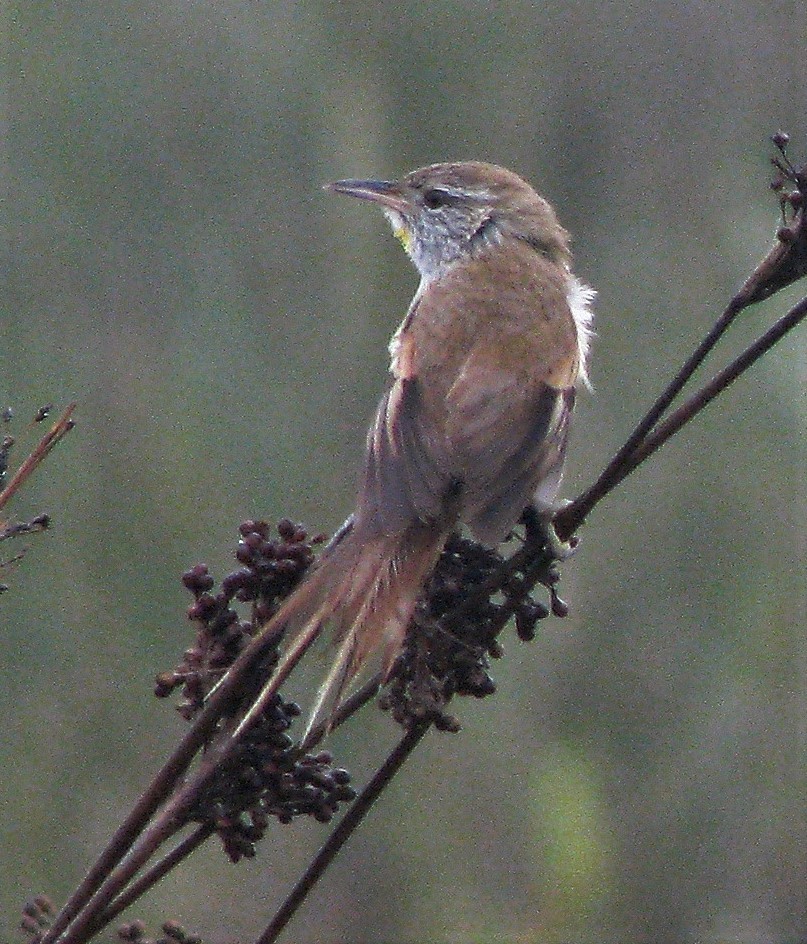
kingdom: Animalia
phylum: Chordata
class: Aves
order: Passeriformes
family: Furnariidae
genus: Cranioleuca
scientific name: Cranioleuca sulphurifera
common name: Sulphur-bearded spinetail
